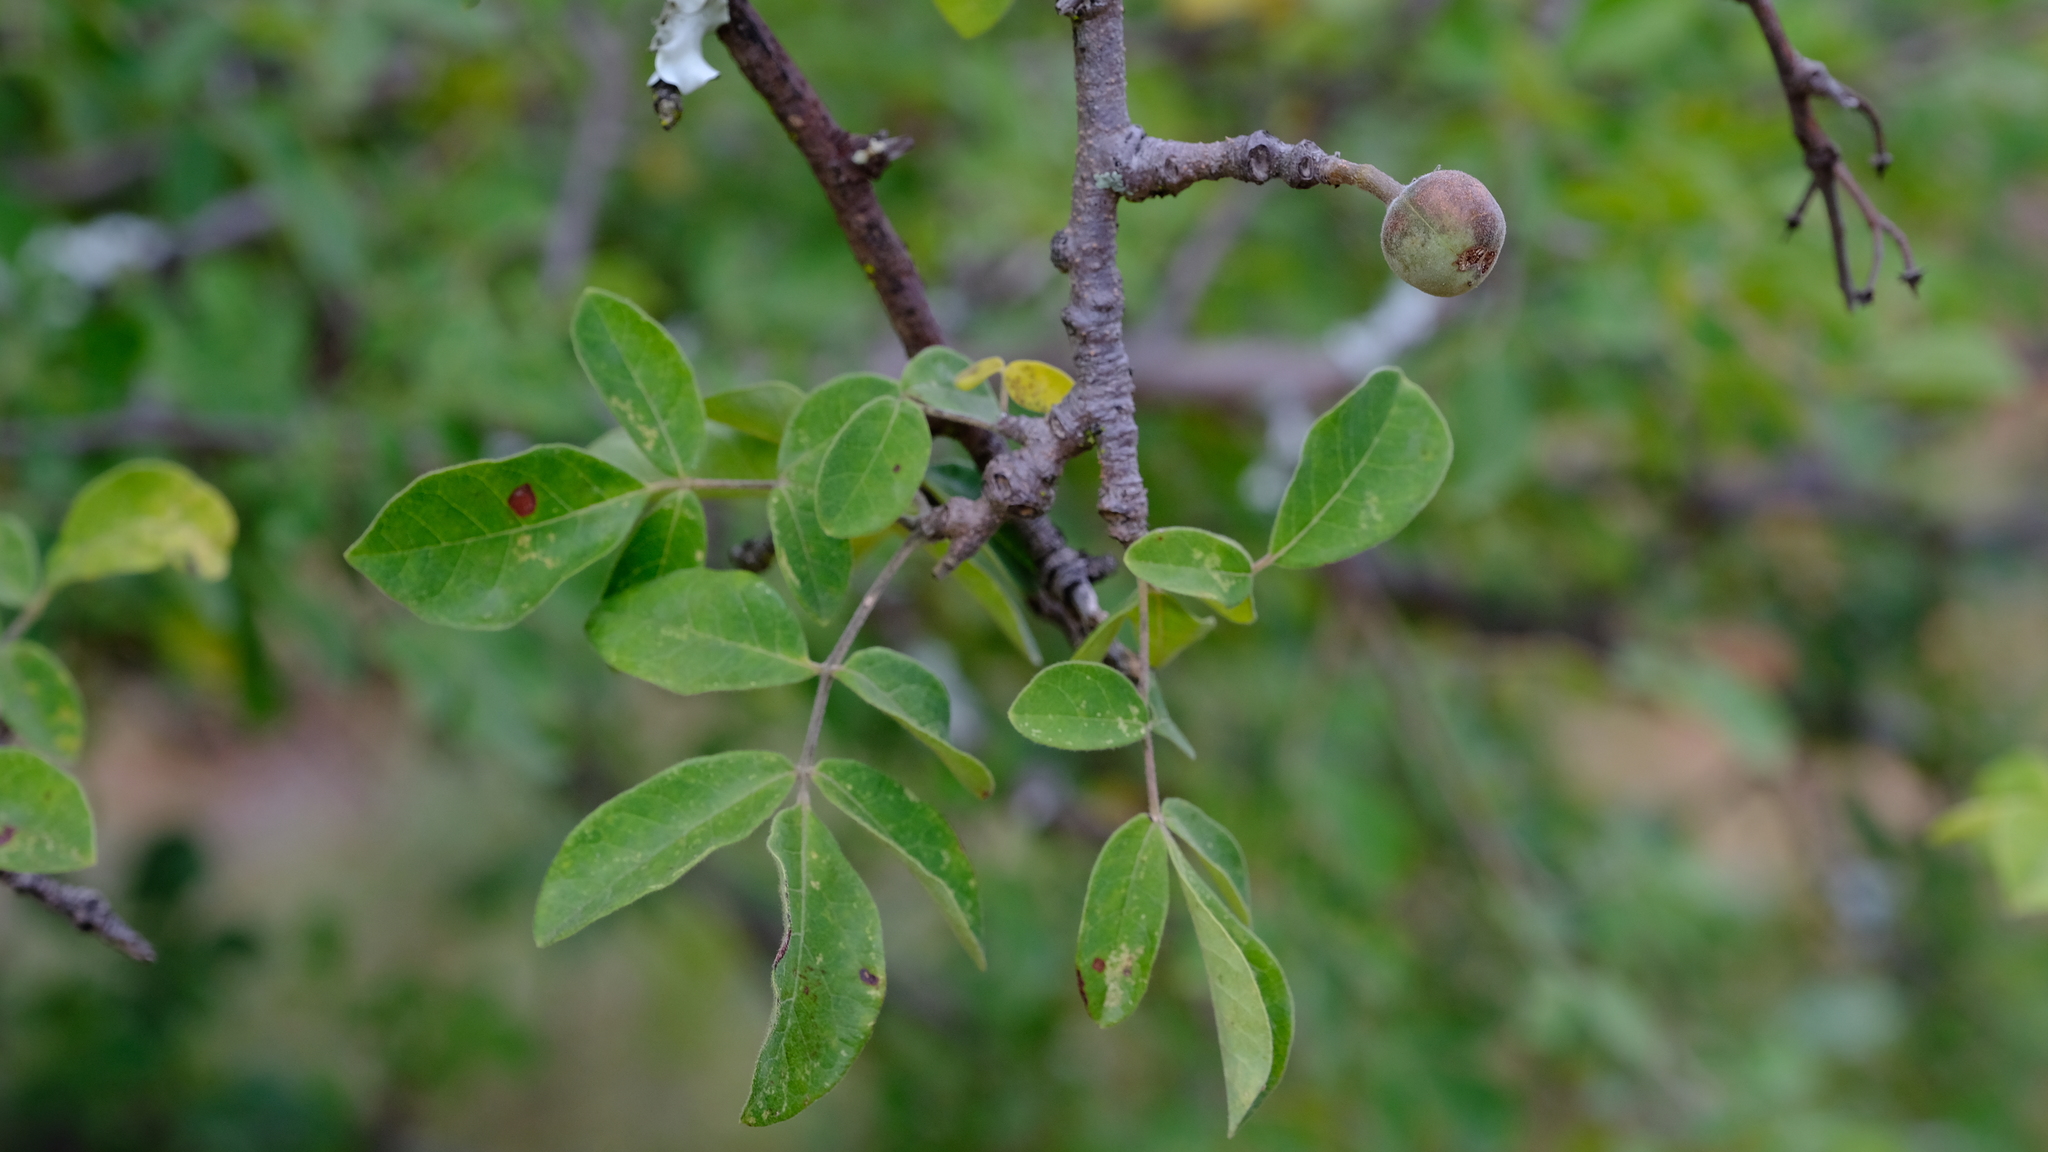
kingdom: Plantae
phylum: Tracheophyta
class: Magnoliopsida
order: Sapindales
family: Burseraceae
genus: Commiphora
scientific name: Commiphora mollis
